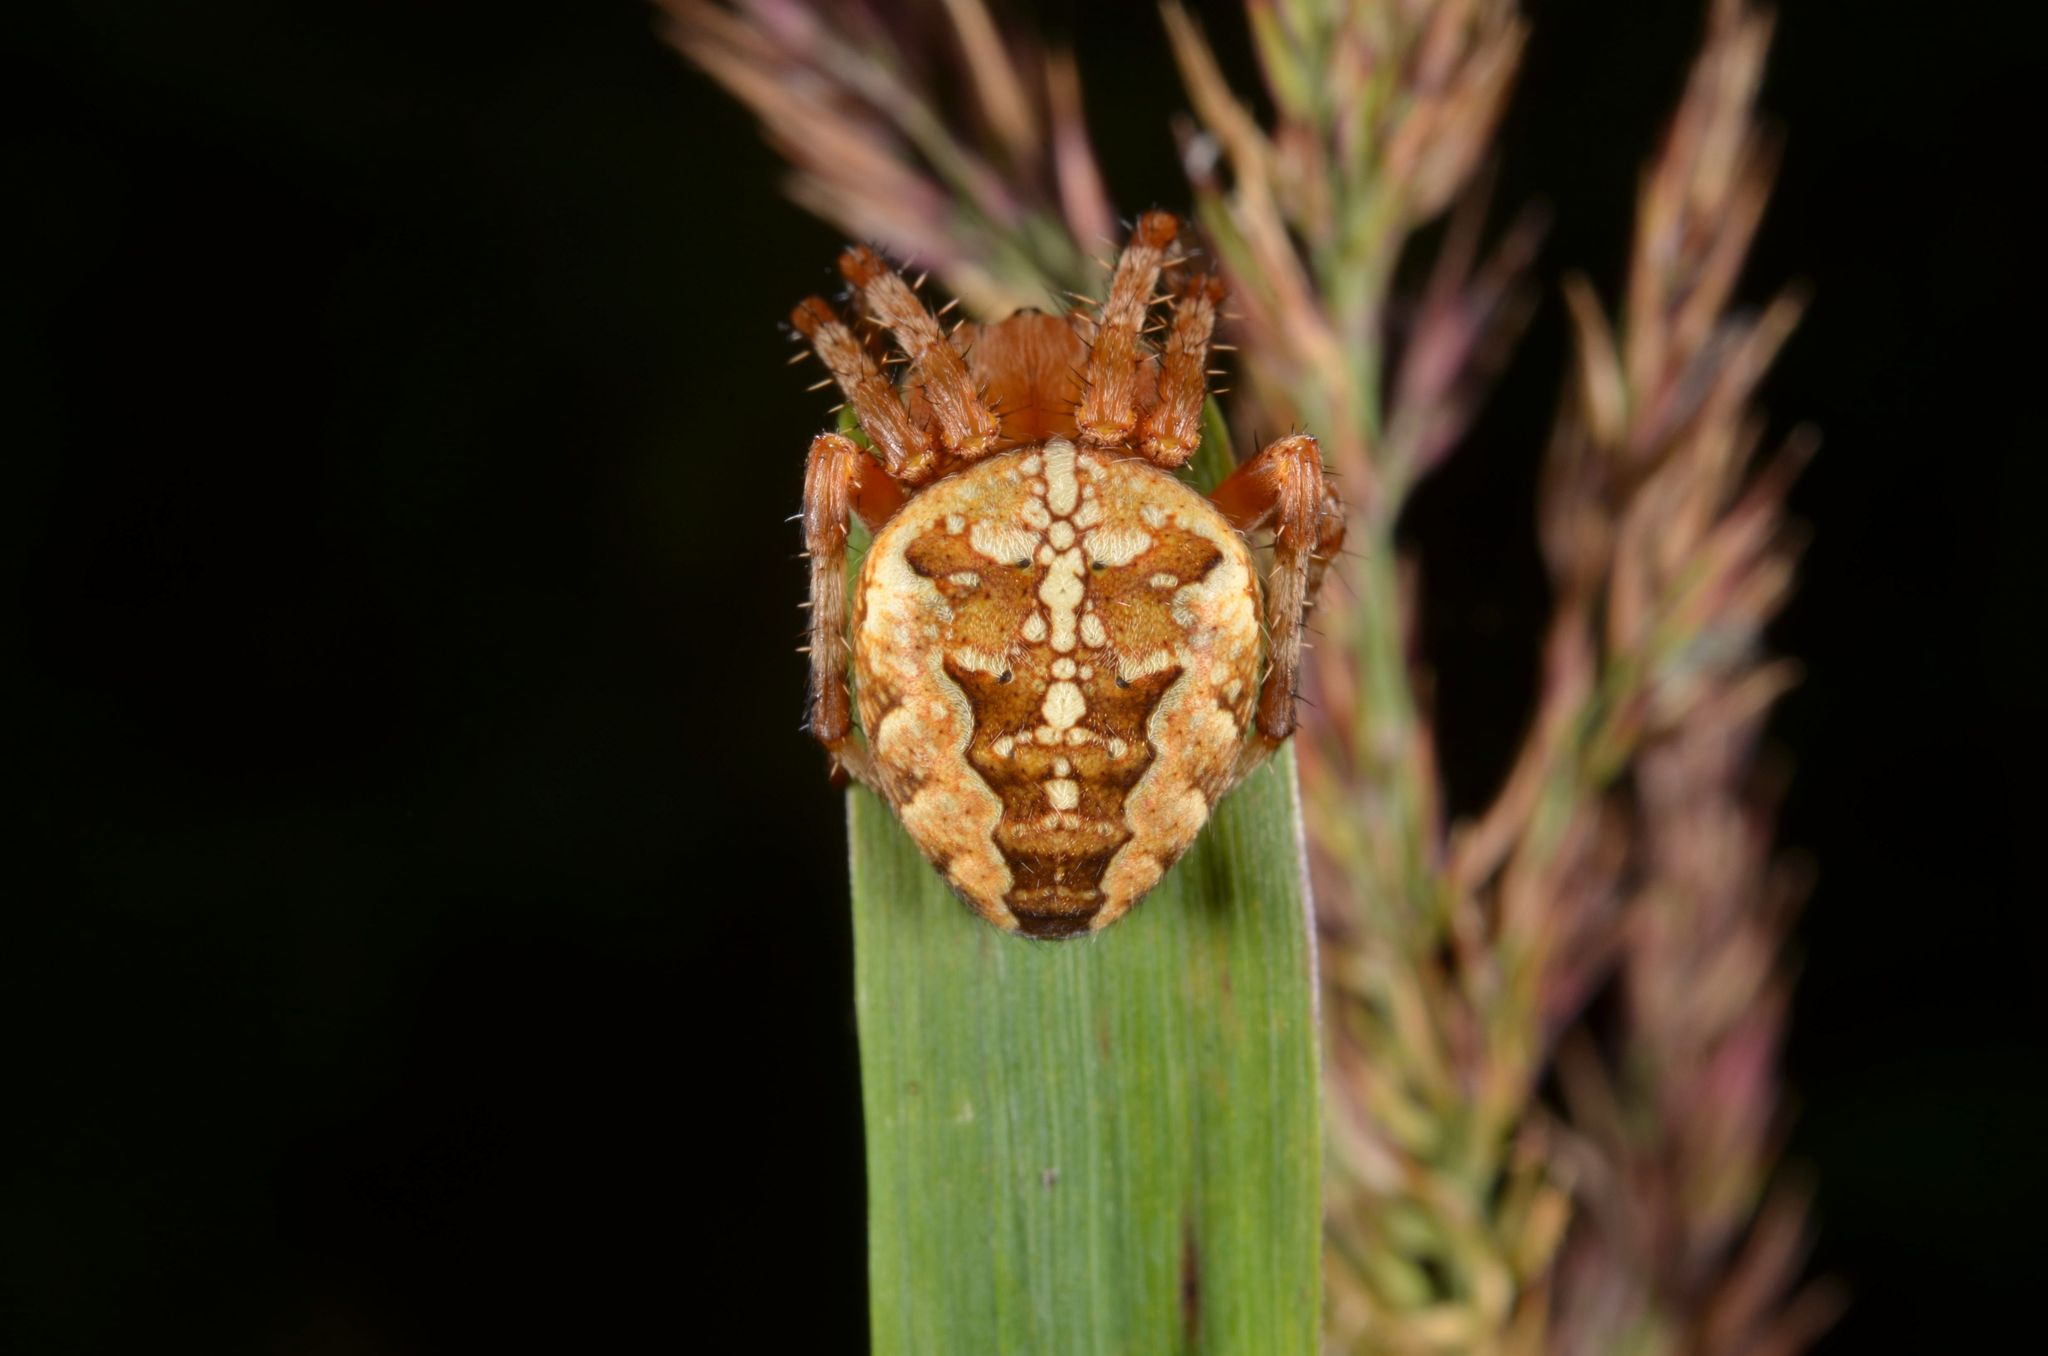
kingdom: Animalia
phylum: Arthropoda
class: Arachnida
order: Araneae
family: Araneidae
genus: Araneus
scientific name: Araneus diadematus
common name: Cross orbweaver
